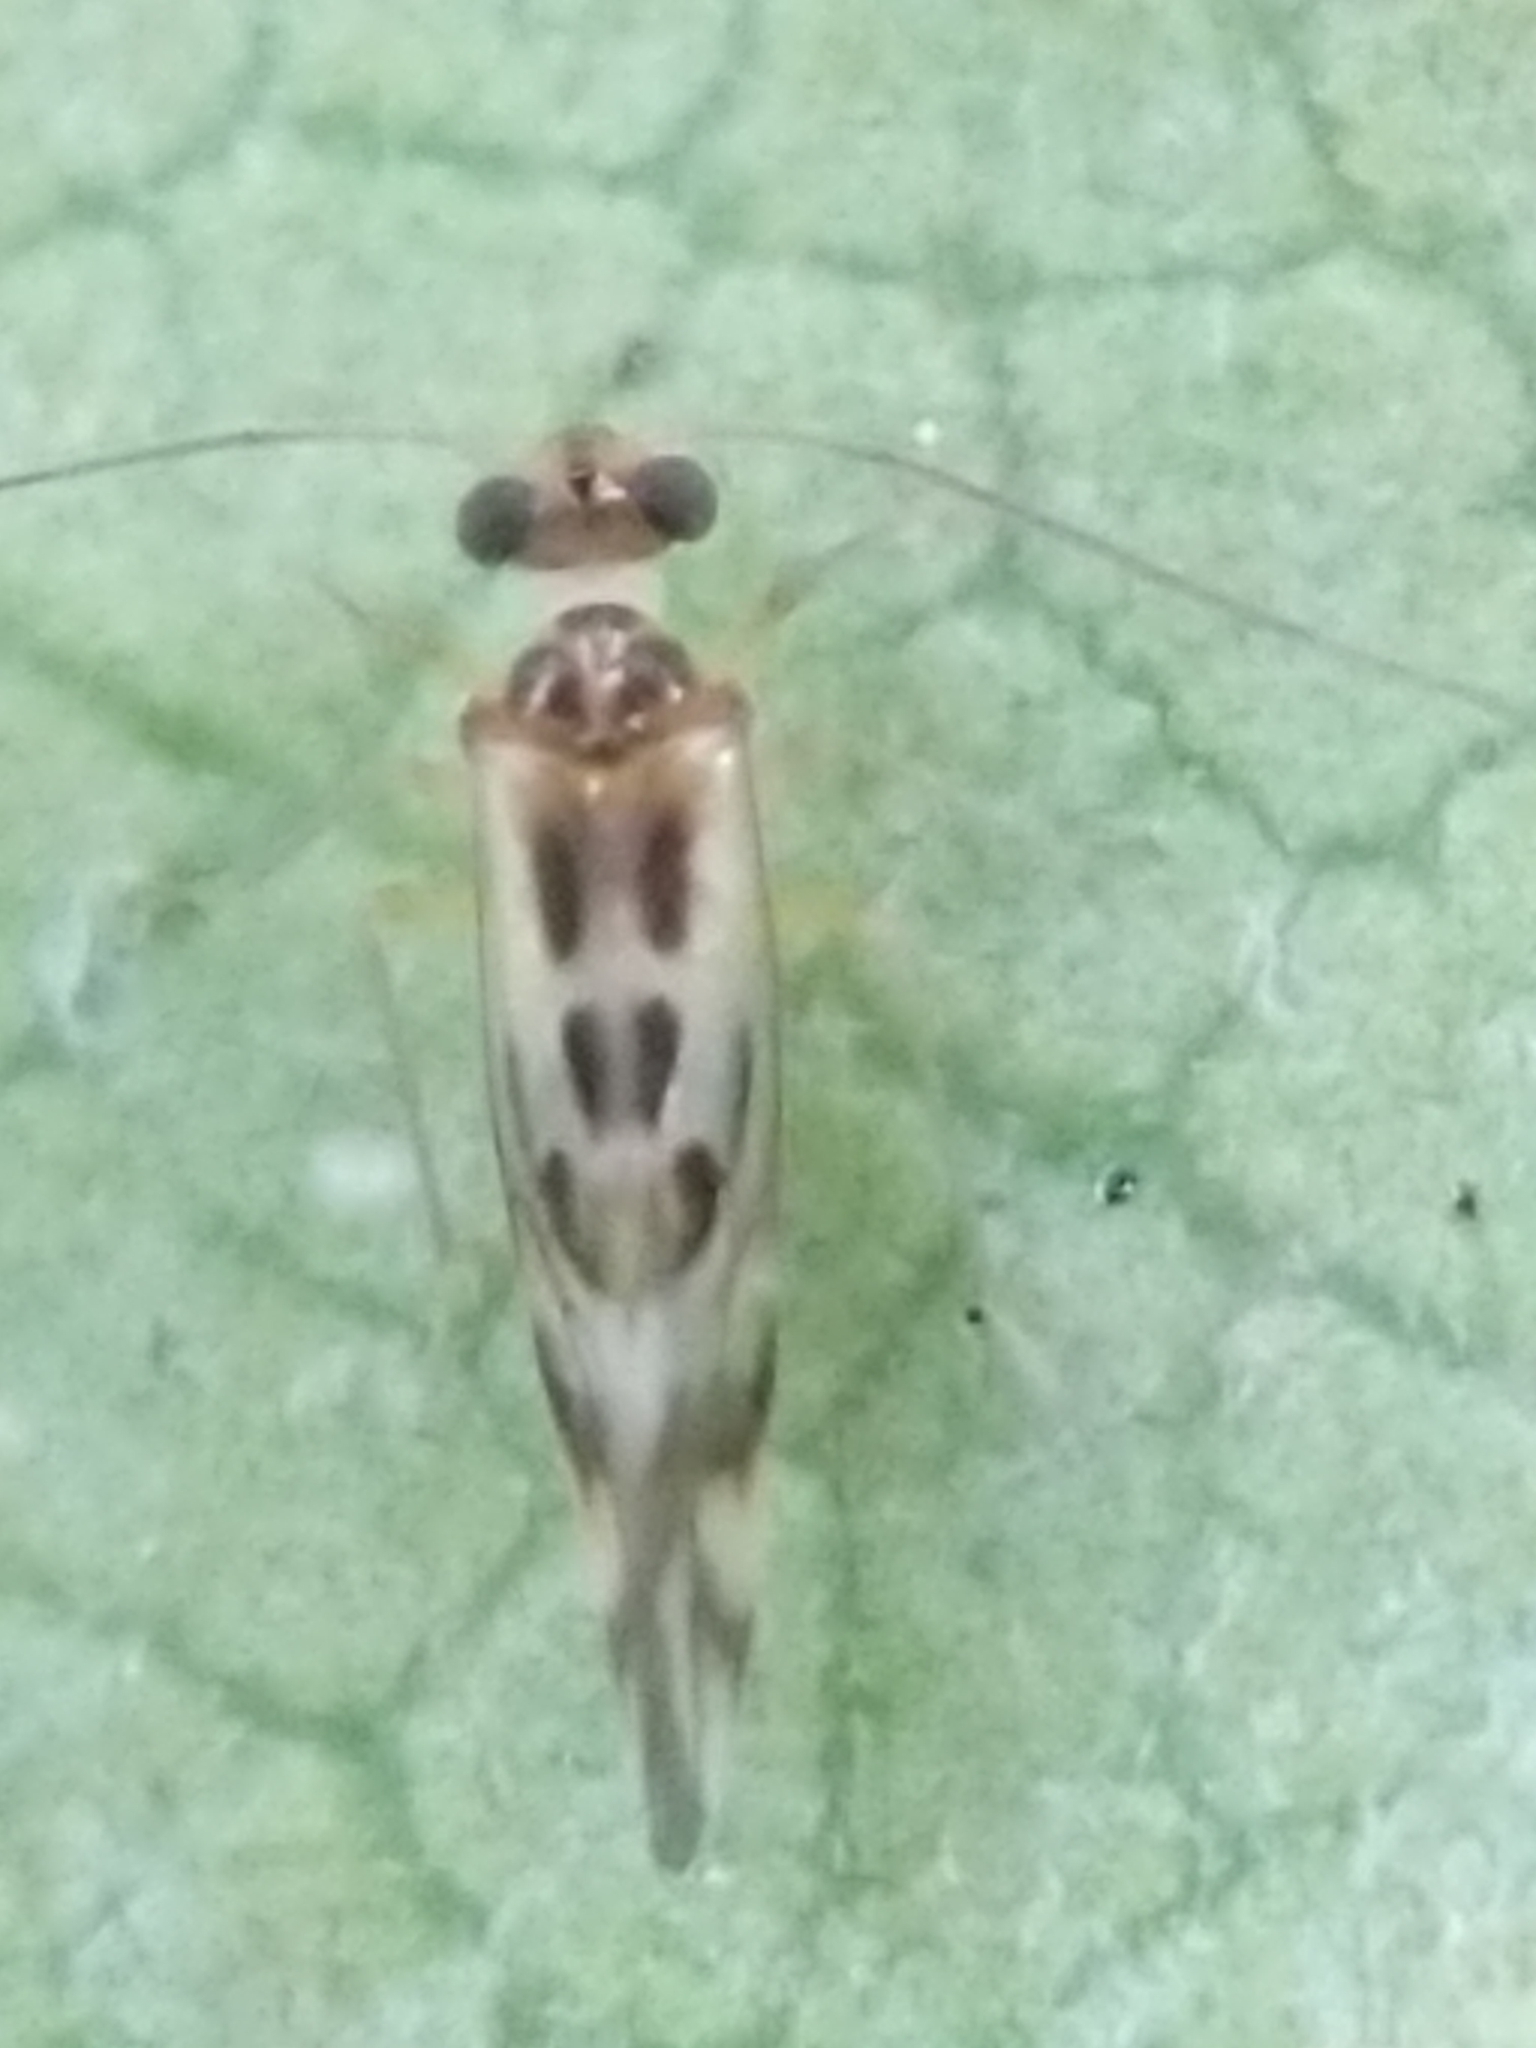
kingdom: Animalia
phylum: Arthropoda
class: Insecta
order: Psocodea
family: Stenopsocidae
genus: Graphopsocus
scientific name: Graphopsocus cruciatus
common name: Lizard bark louse
